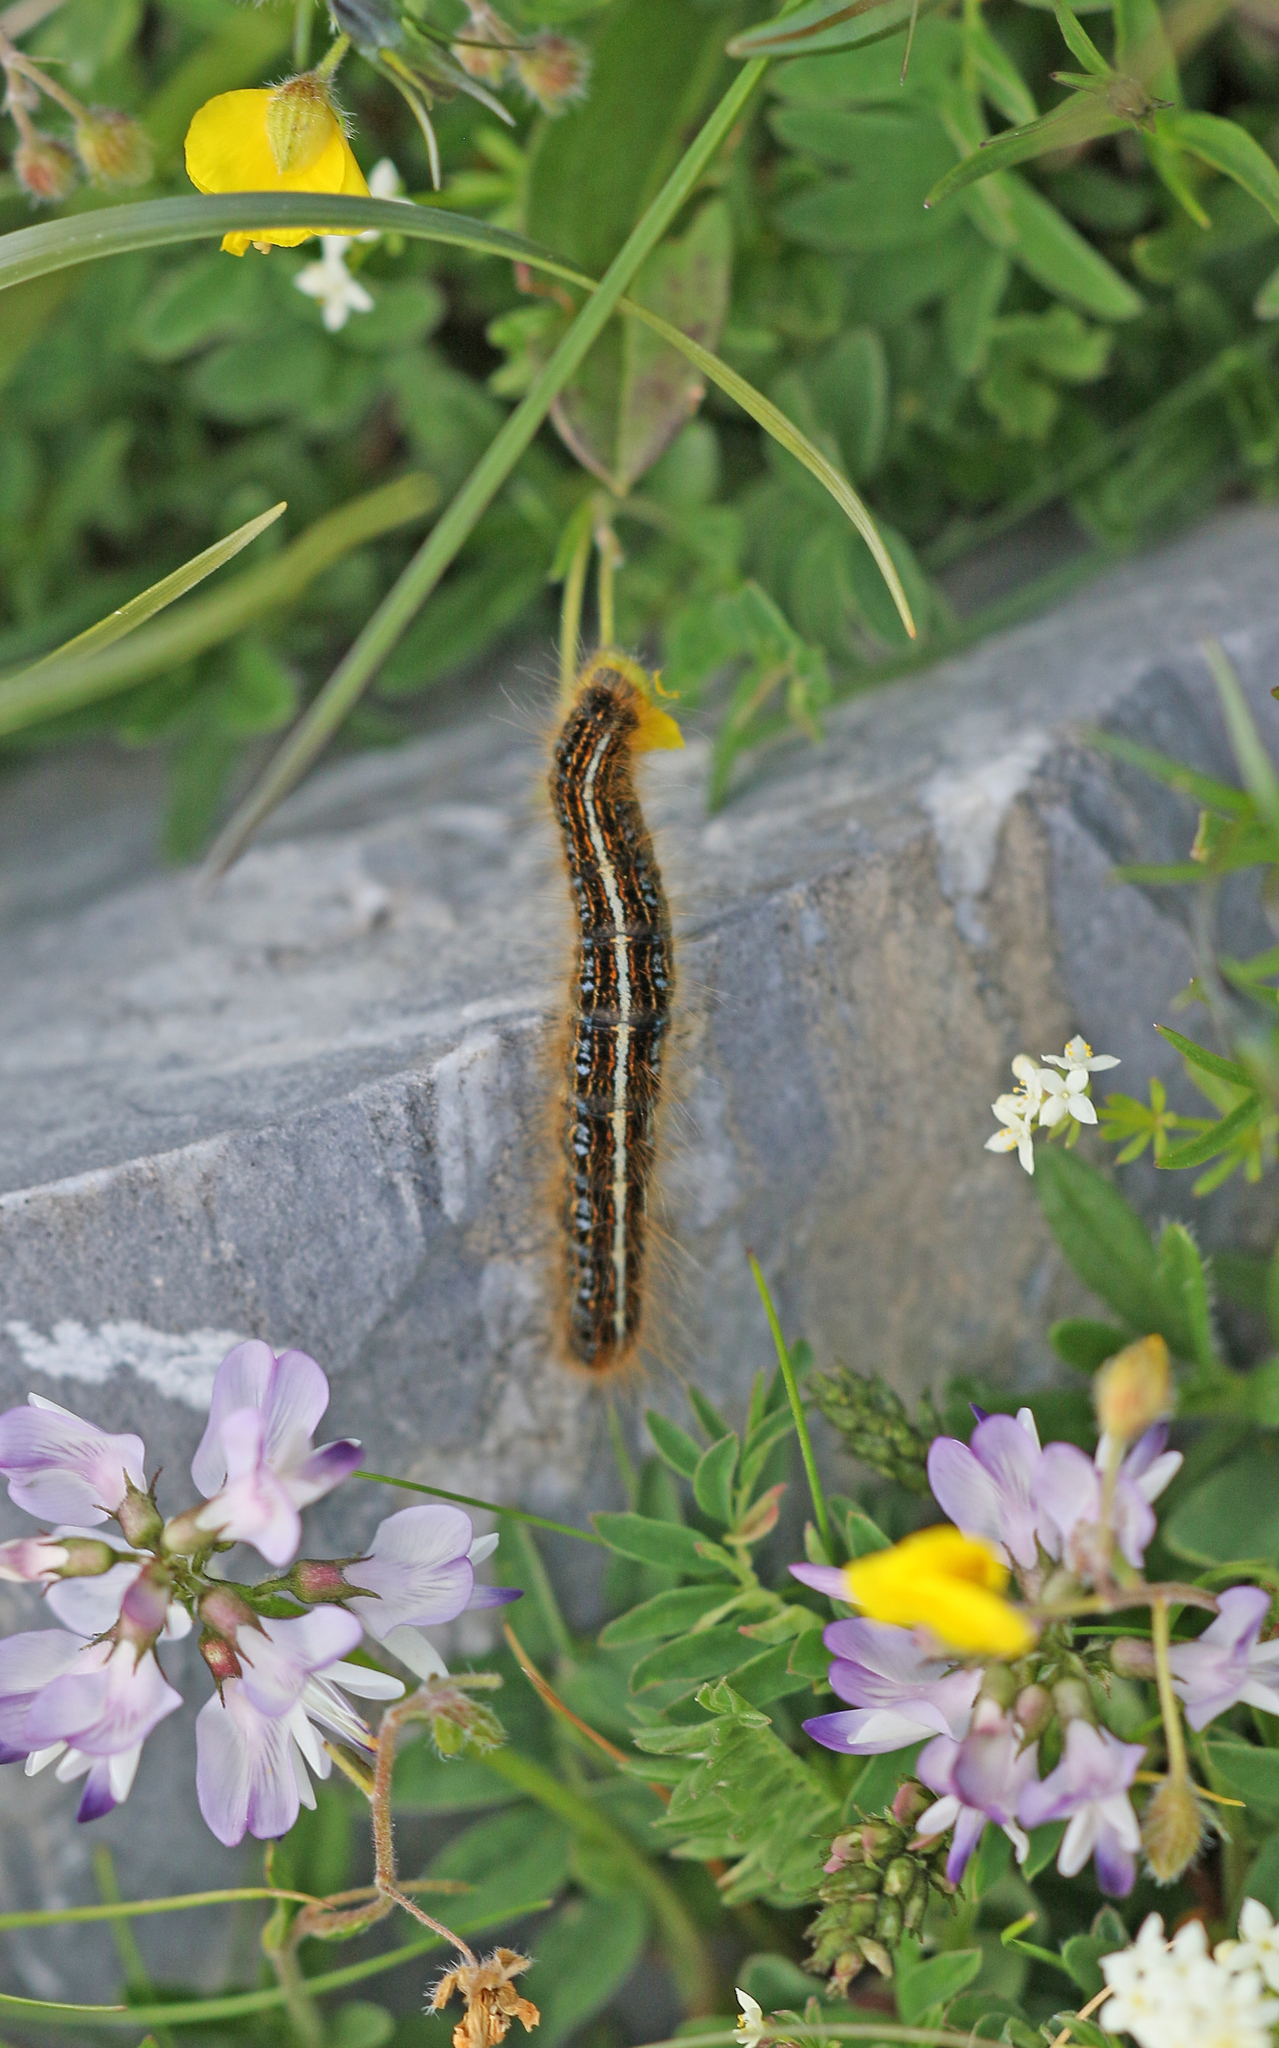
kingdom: Animalia
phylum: Arthropoda
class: Insecta
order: Lepidoptera
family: Lasiocampidae
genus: Malacosoma
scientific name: Malacosoma alpicola
